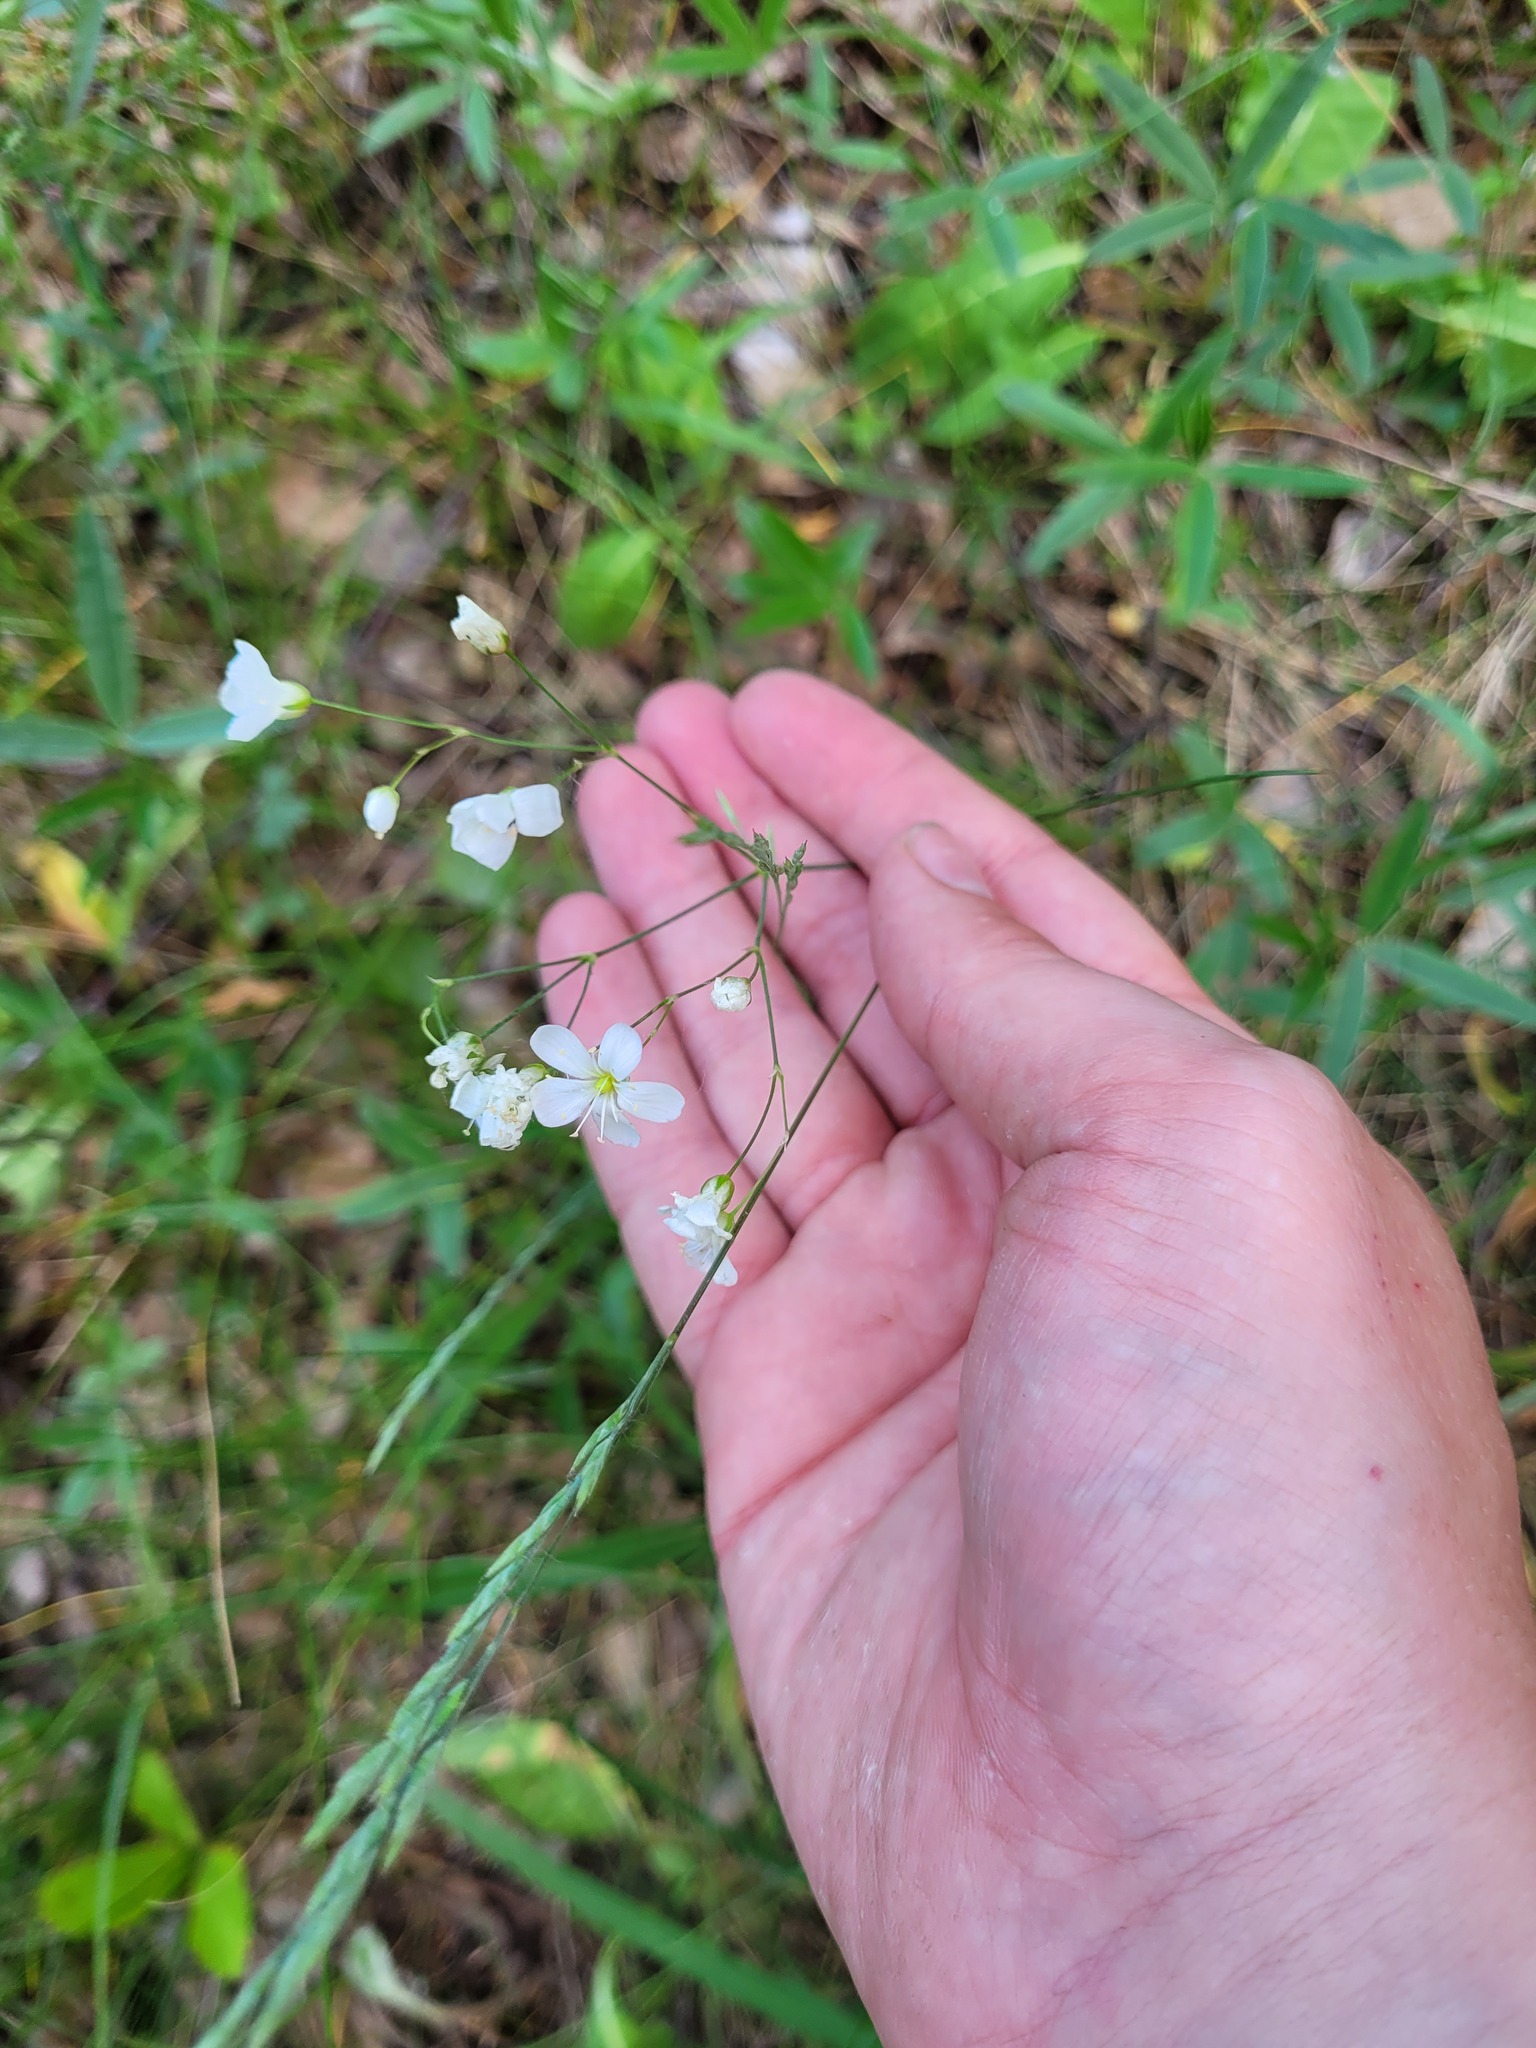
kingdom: Plantae
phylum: Tracheophyta
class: Magnoliopsida
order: Caryophyllales
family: Caryophyllaceae
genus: Eremogone
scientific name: Eremogone saxatilis
